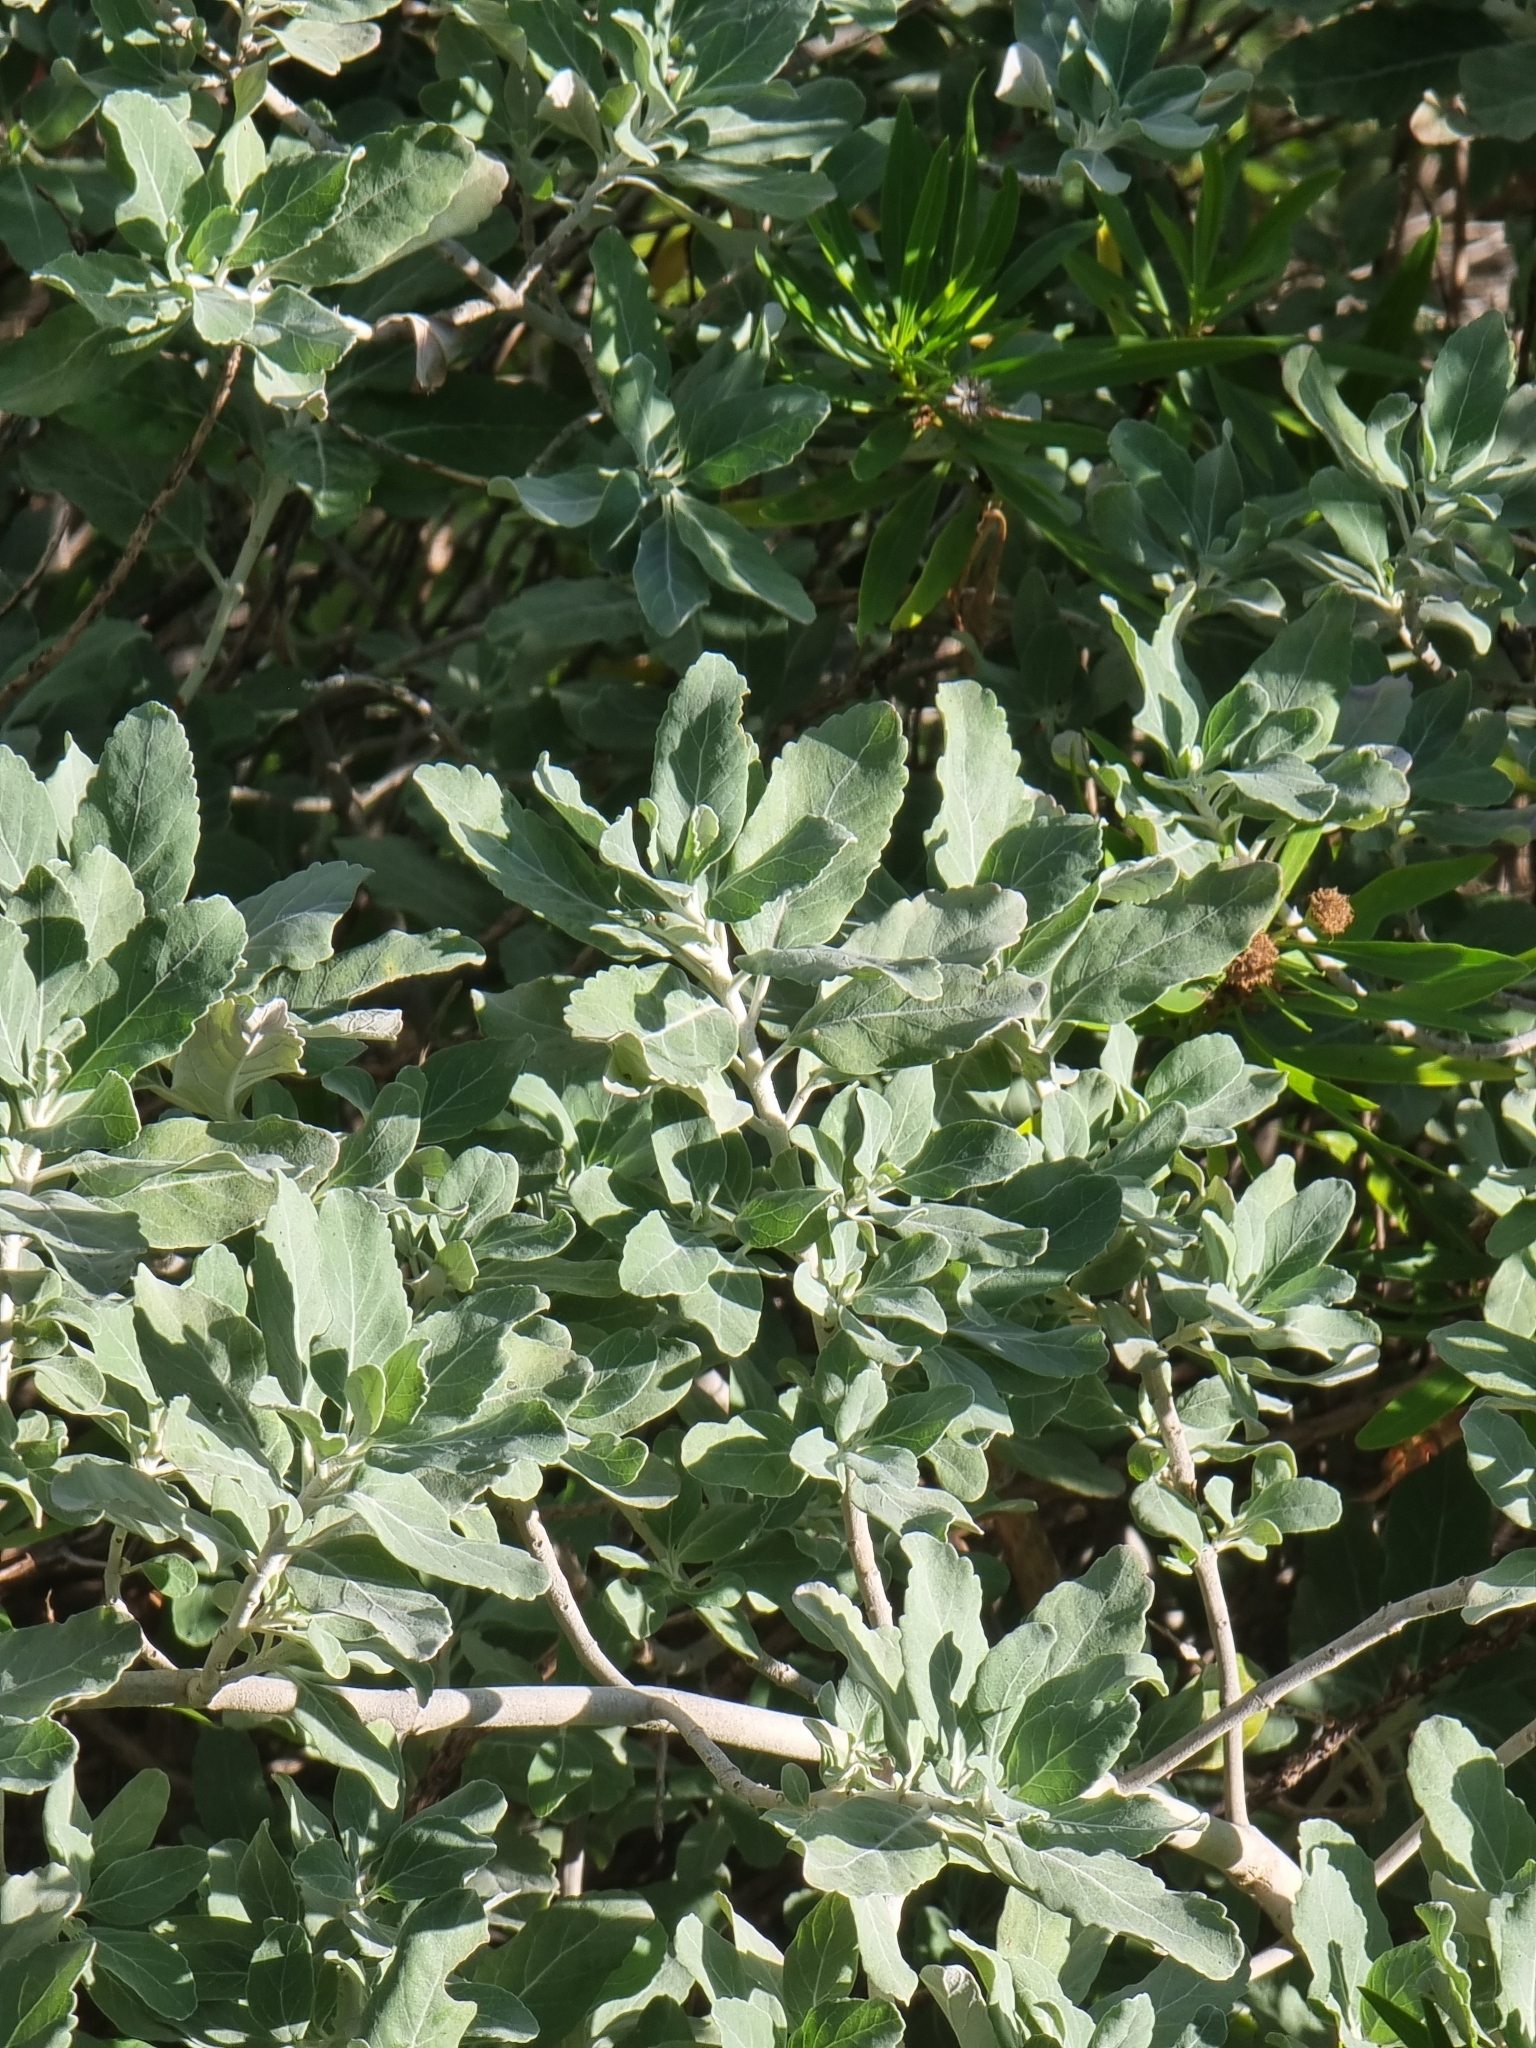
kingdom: Plantae
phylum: Tracheophyta
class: Magnoliopsida
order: Lamiales
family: Lamiaceae
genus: Teucrium
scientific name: Teucrium heterophyllum
